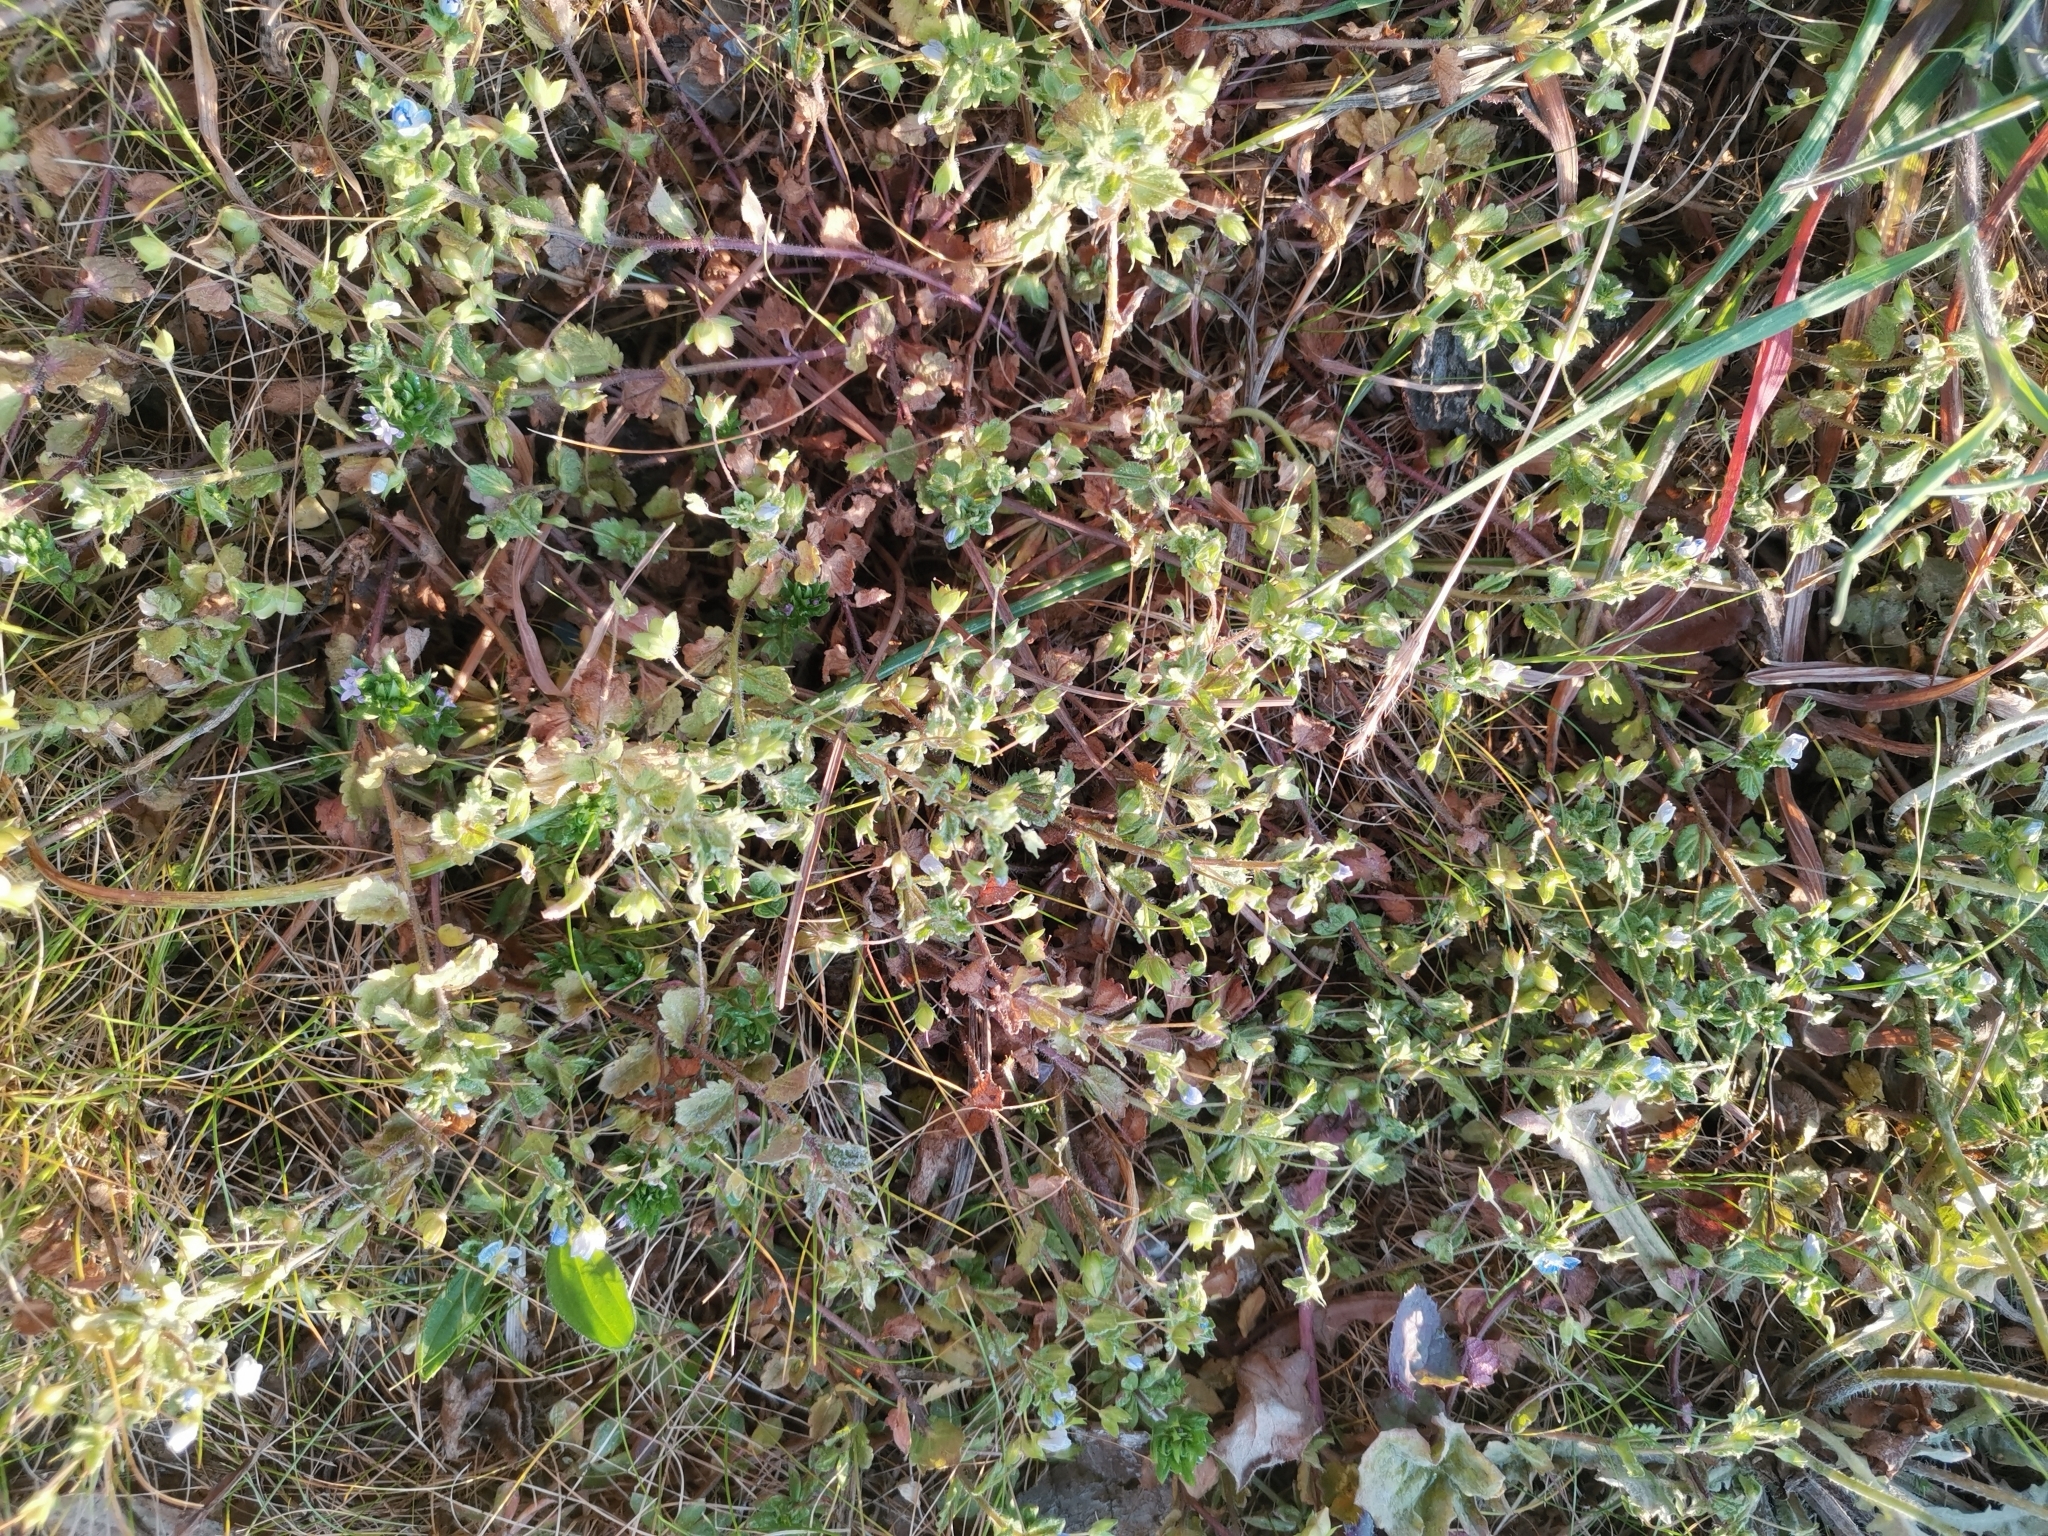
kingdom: Plantae
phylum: Tracheophyta
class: Magnoliopsida
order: Lamiales
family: Plantaginaceae
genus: Veronica
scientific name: Veronica persica
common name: Common field-speedwell
